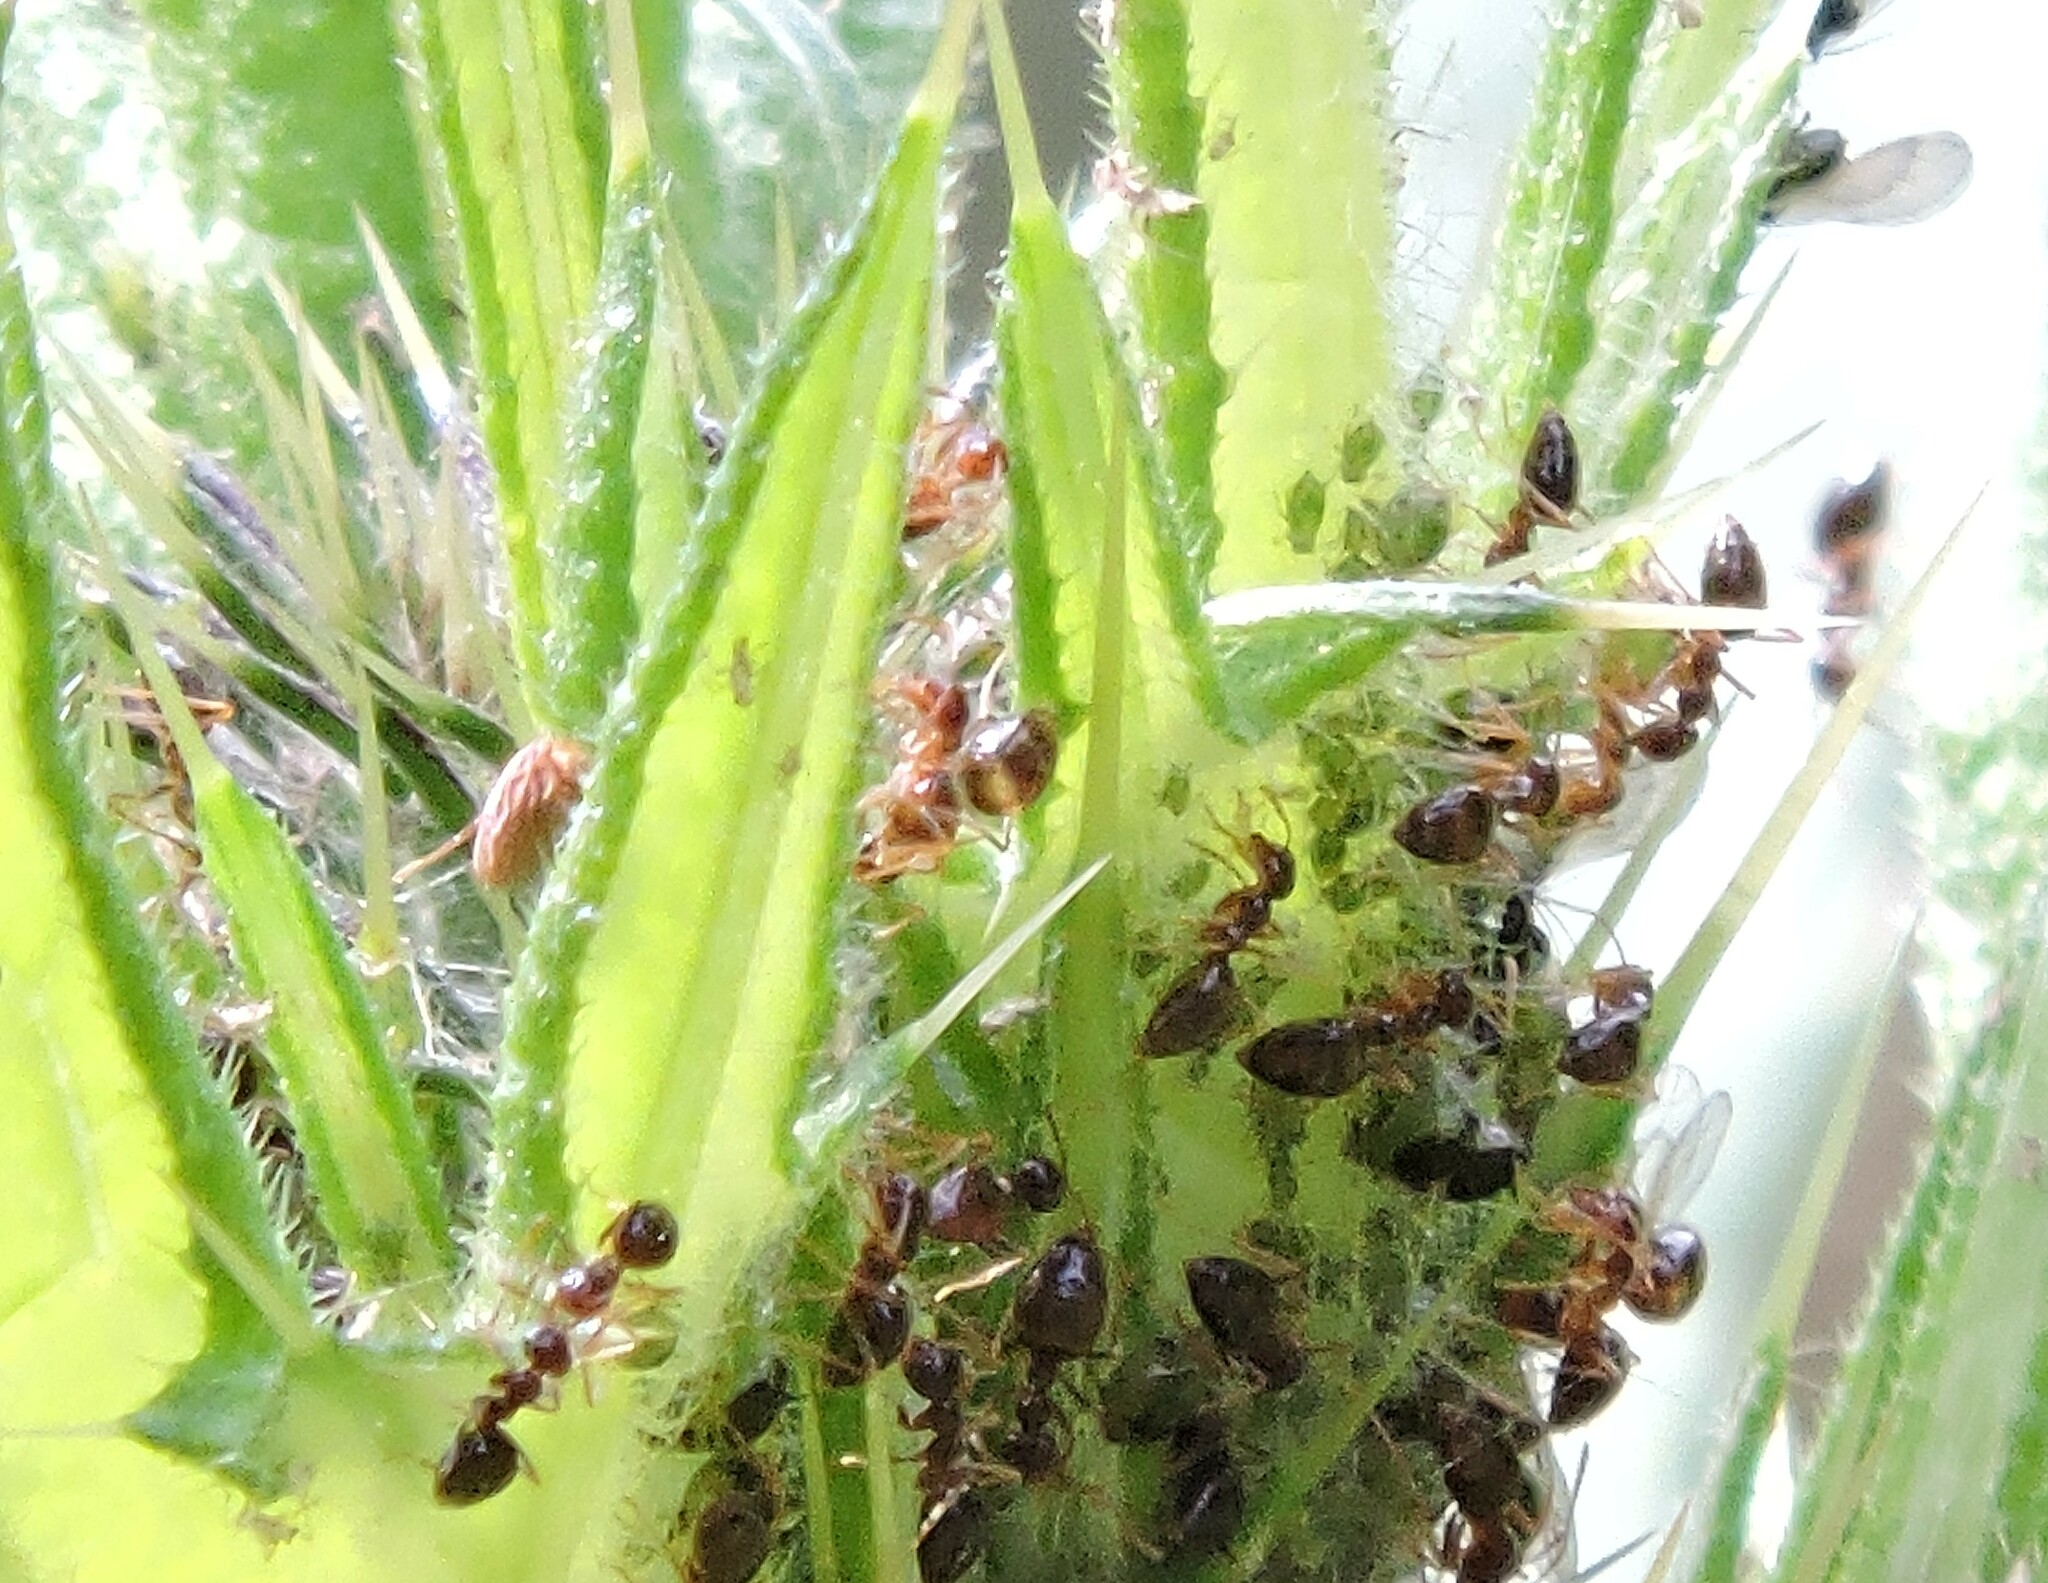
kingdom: Animalia
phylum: Arthropoda
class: Insecta
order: Hymenoptera
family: Formicidae
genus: Prenolepis
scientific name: Prenolepis imparis
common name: Small honey ant
